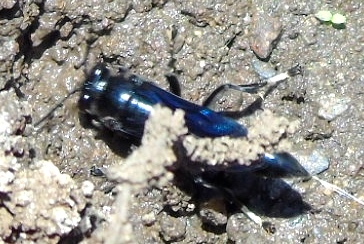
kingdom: Animalia
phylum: Arthropoda
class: Insecta
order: Hymenoptera
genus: Trypargilum
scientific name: Trypargilum
